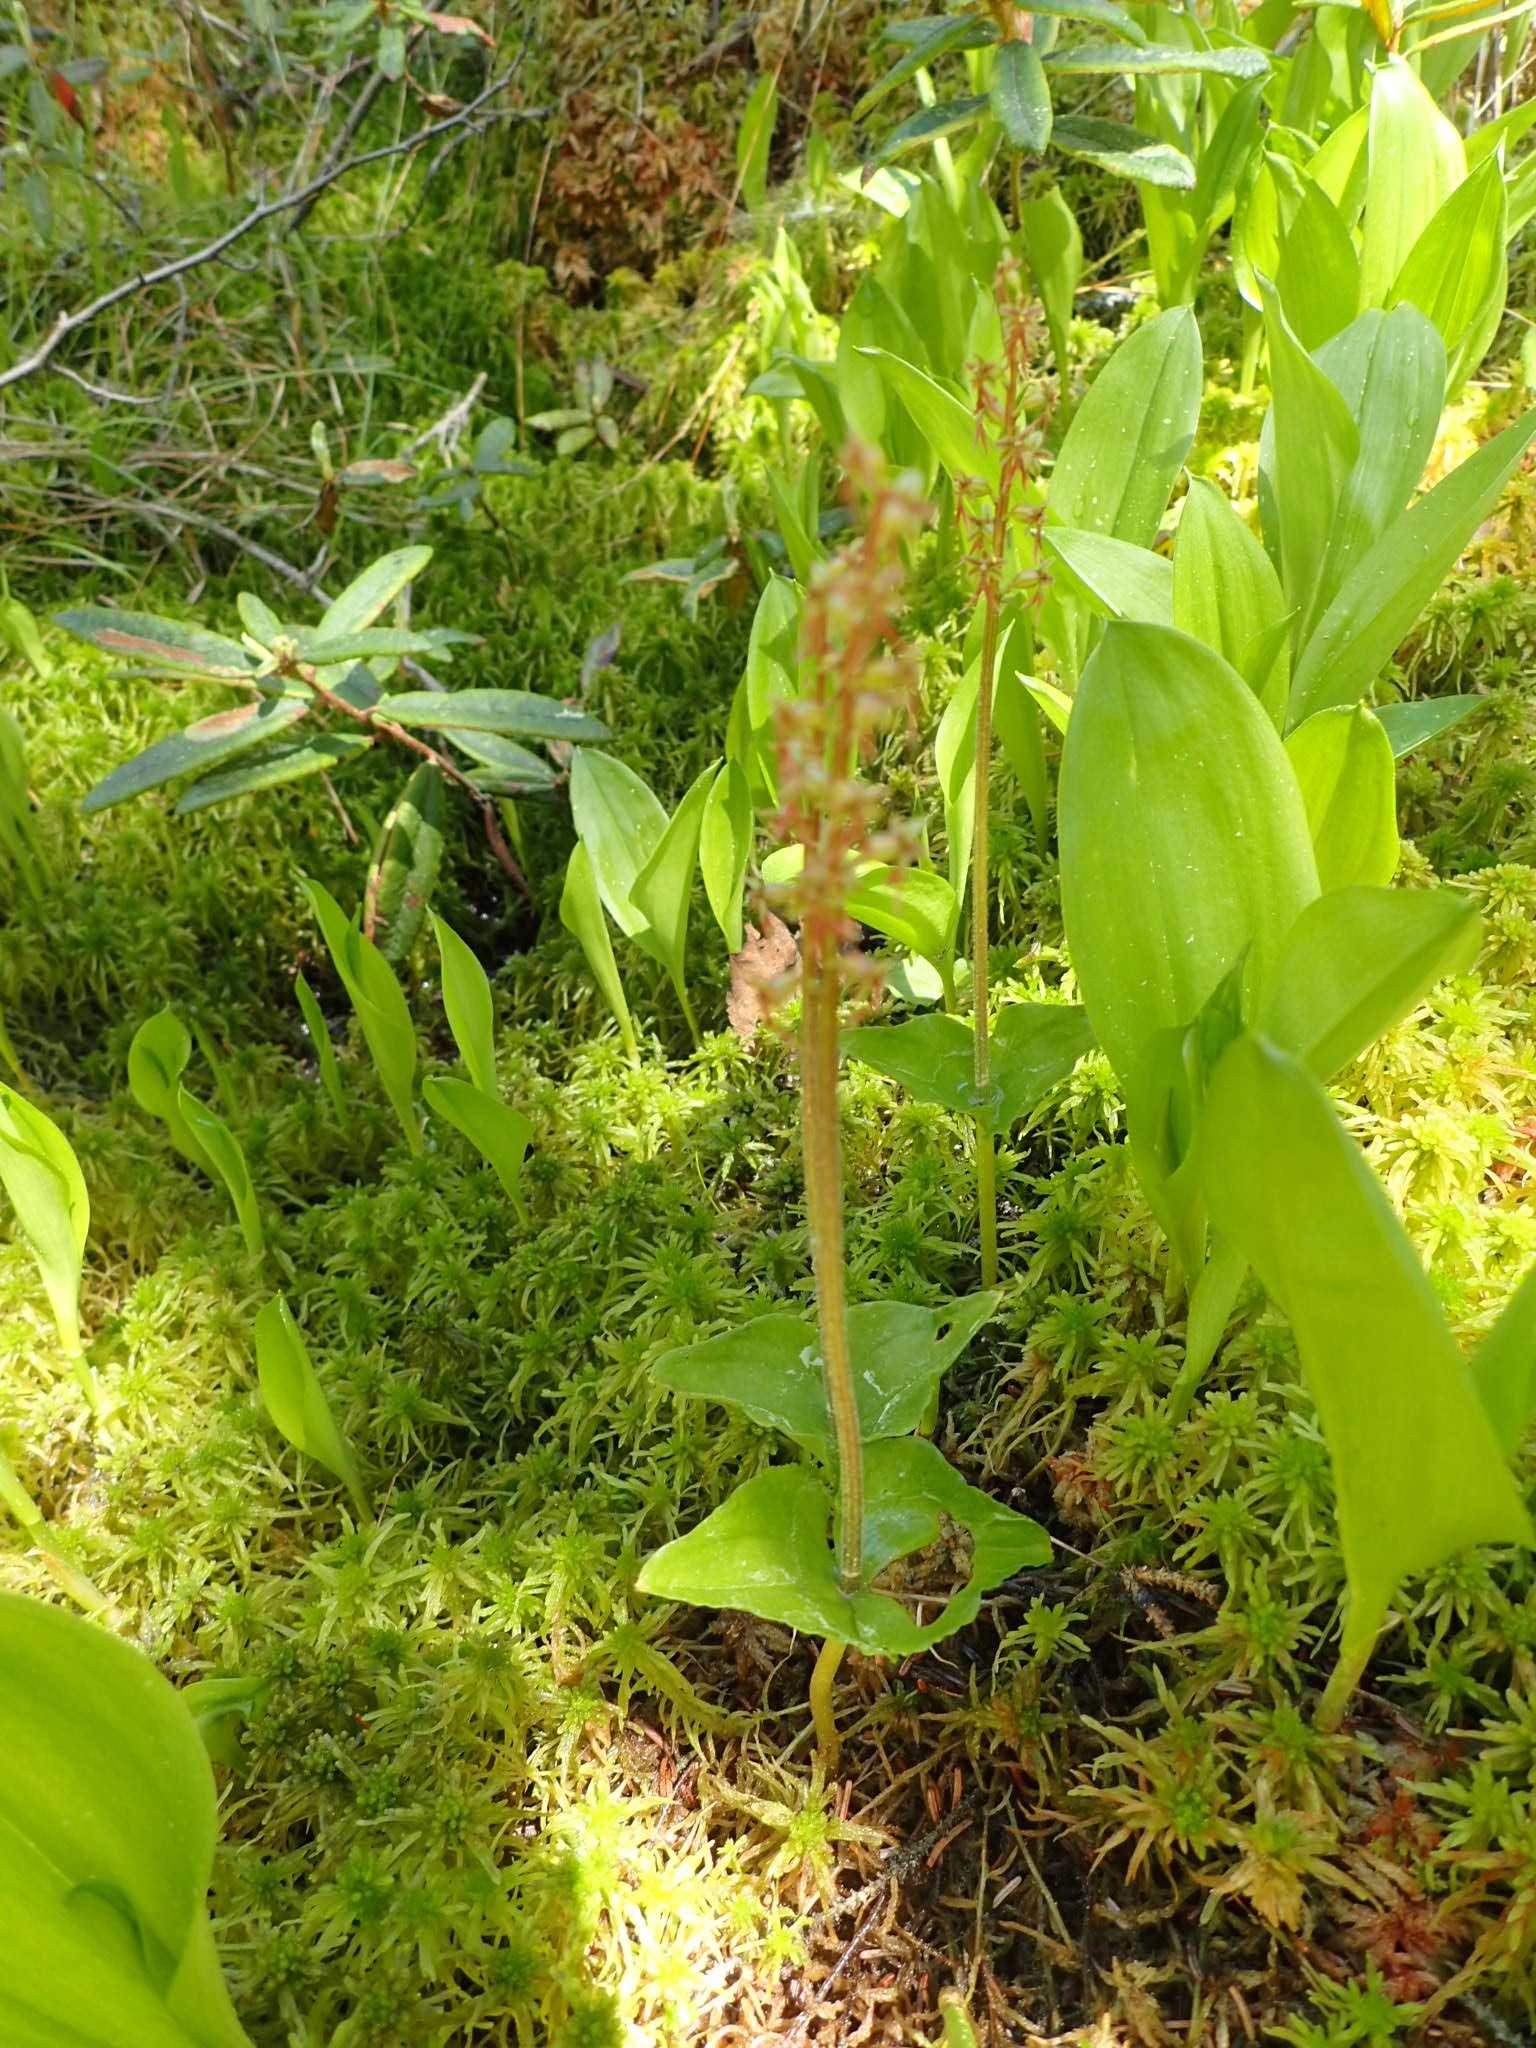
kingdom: Plantae
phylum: Tracheophyta
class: Liliopsida
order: Asparagales
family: Orchidaceae
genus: Neottia
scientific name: Neottia cordata
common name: Lesser twayblade
